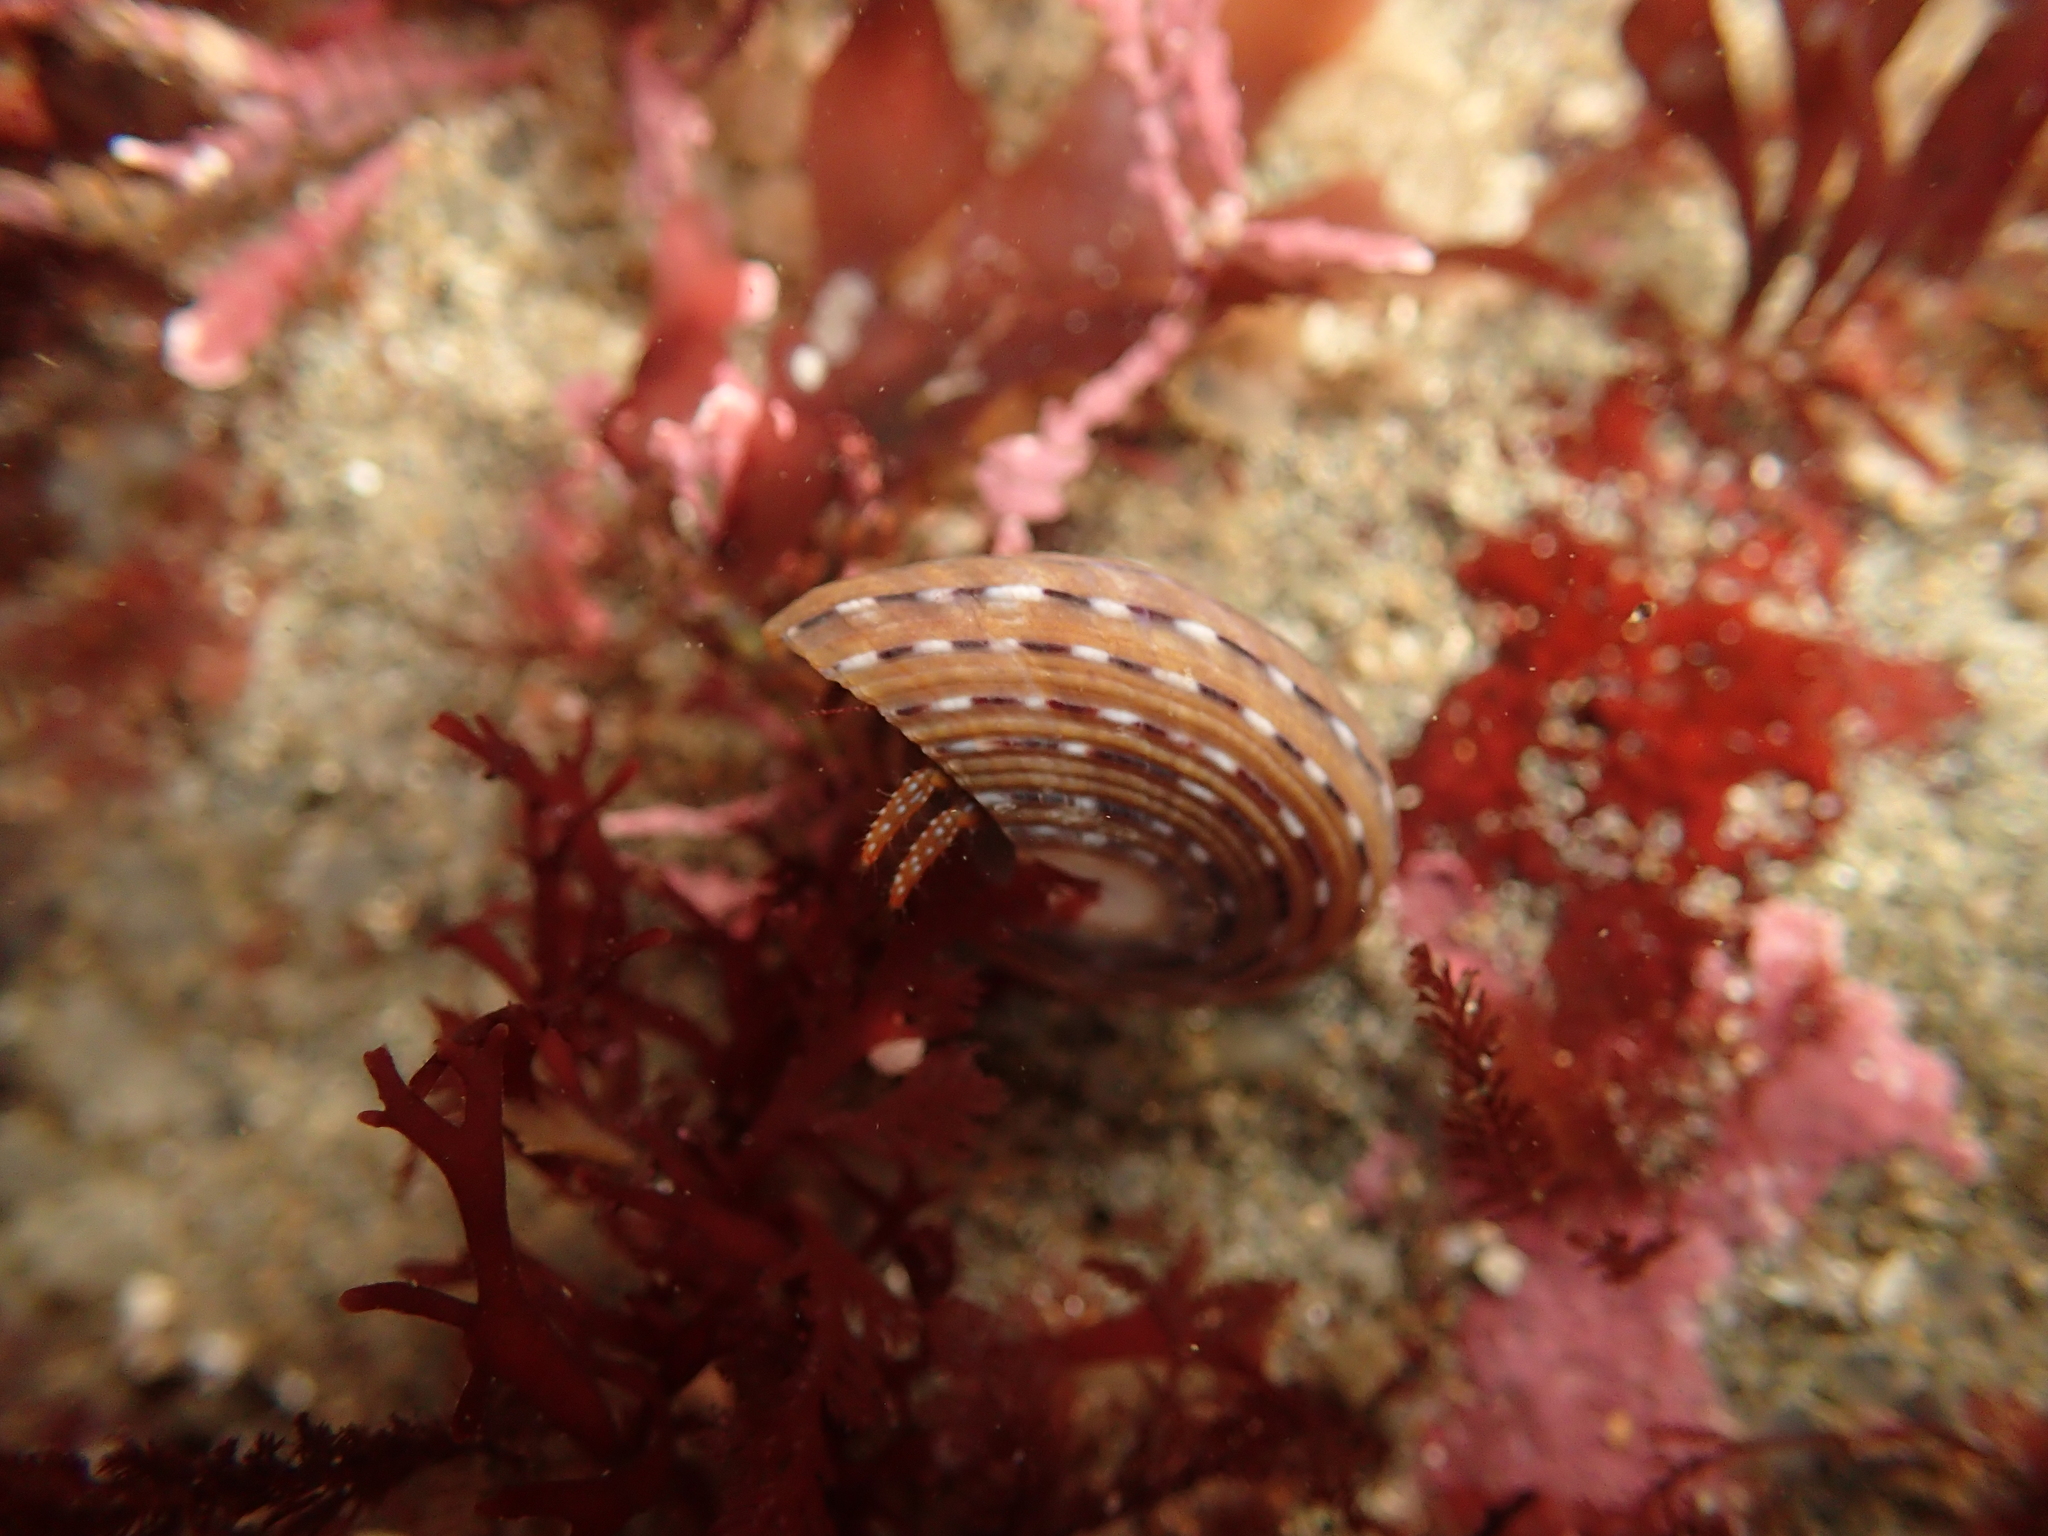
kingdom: Animalia
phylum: Arthropoda
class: Malacostraca
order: Decapoda
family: Paguridae
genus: Pagurus
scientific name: Pagurus granosimanus
